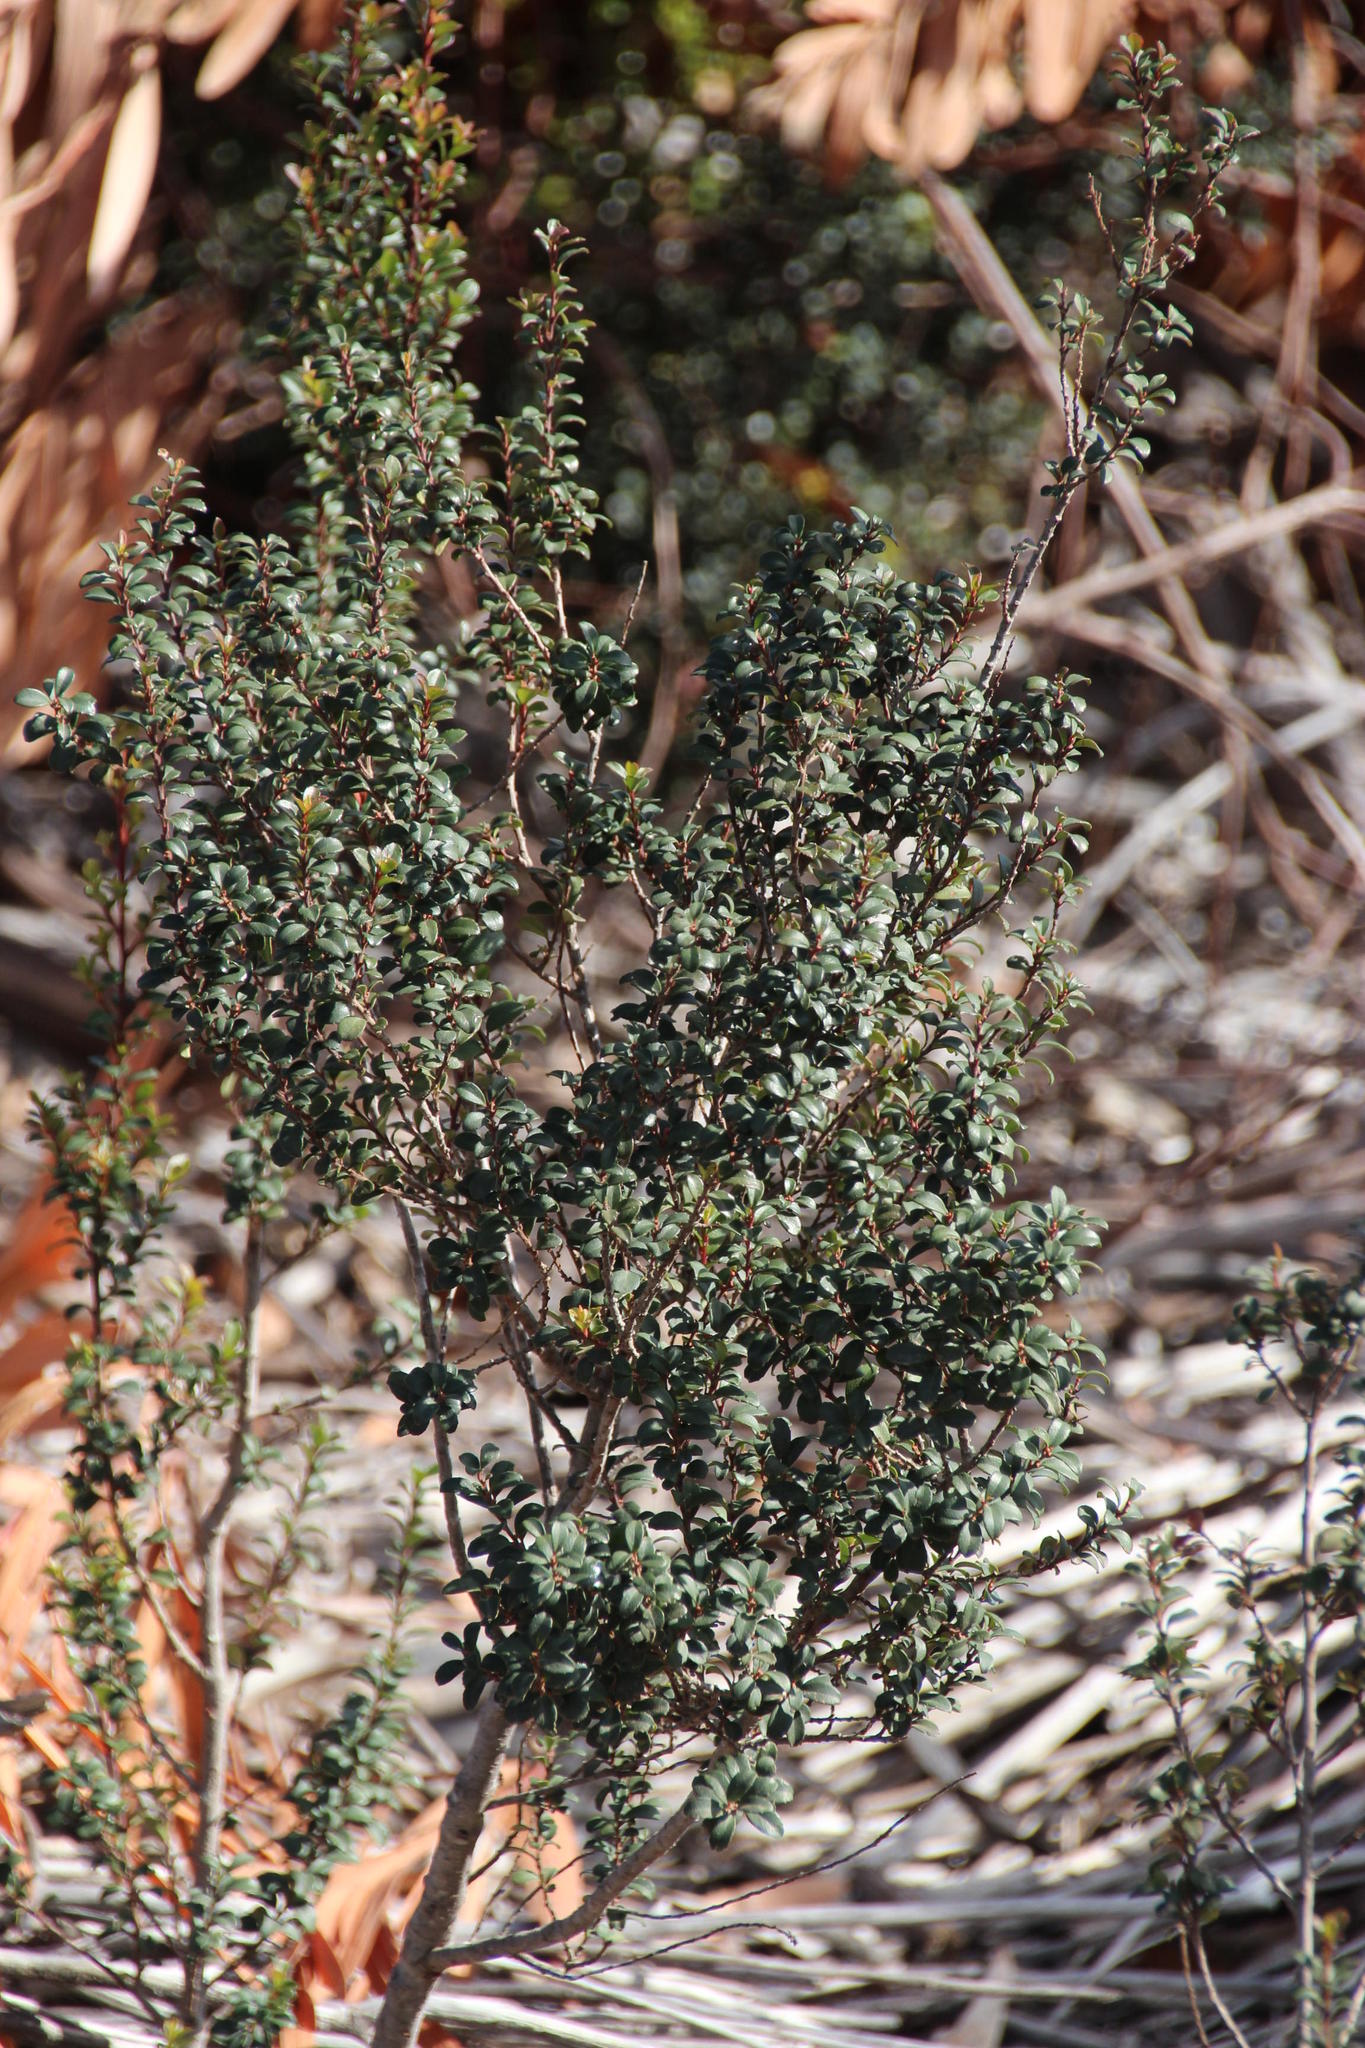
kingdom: Plantae
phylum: Tracheophyta
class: Magnoliopsida
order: Ericales
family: Primulaceae
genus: Myrsine
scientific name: Myrsine africana
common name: African-boxwood
